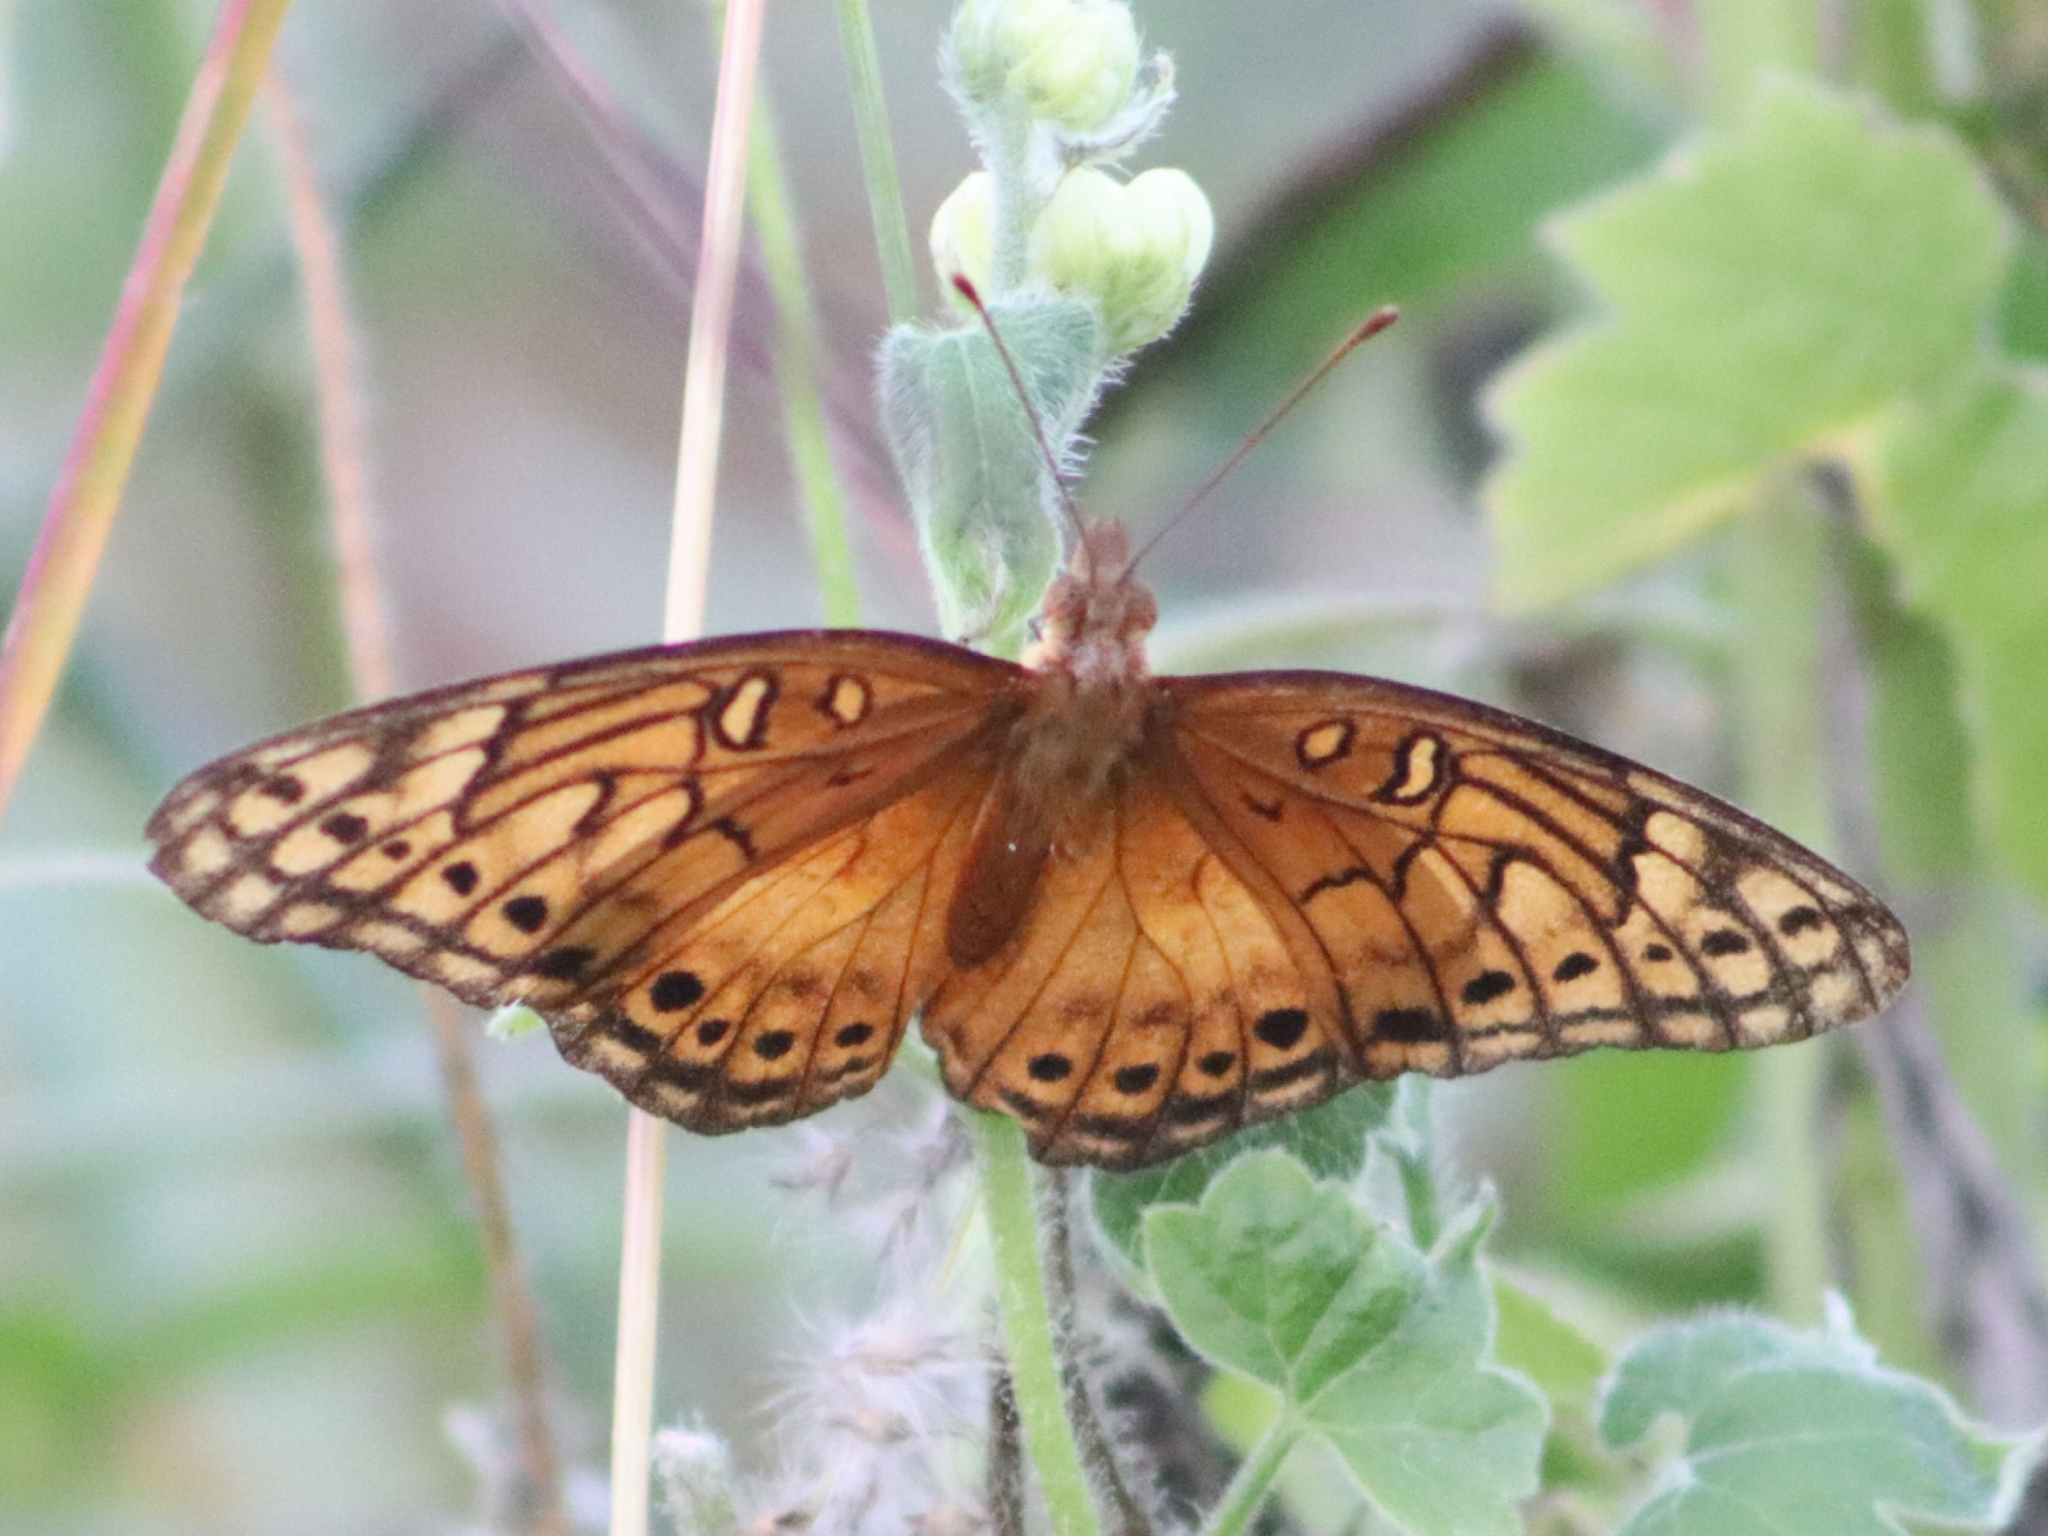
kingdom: Animalia
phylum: Arthropoda
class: Insecta
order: Lepidoptera
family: Nymphalidae
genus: Euptoieta
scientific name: Euptoieta hegesia
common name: Mexican fritillary
